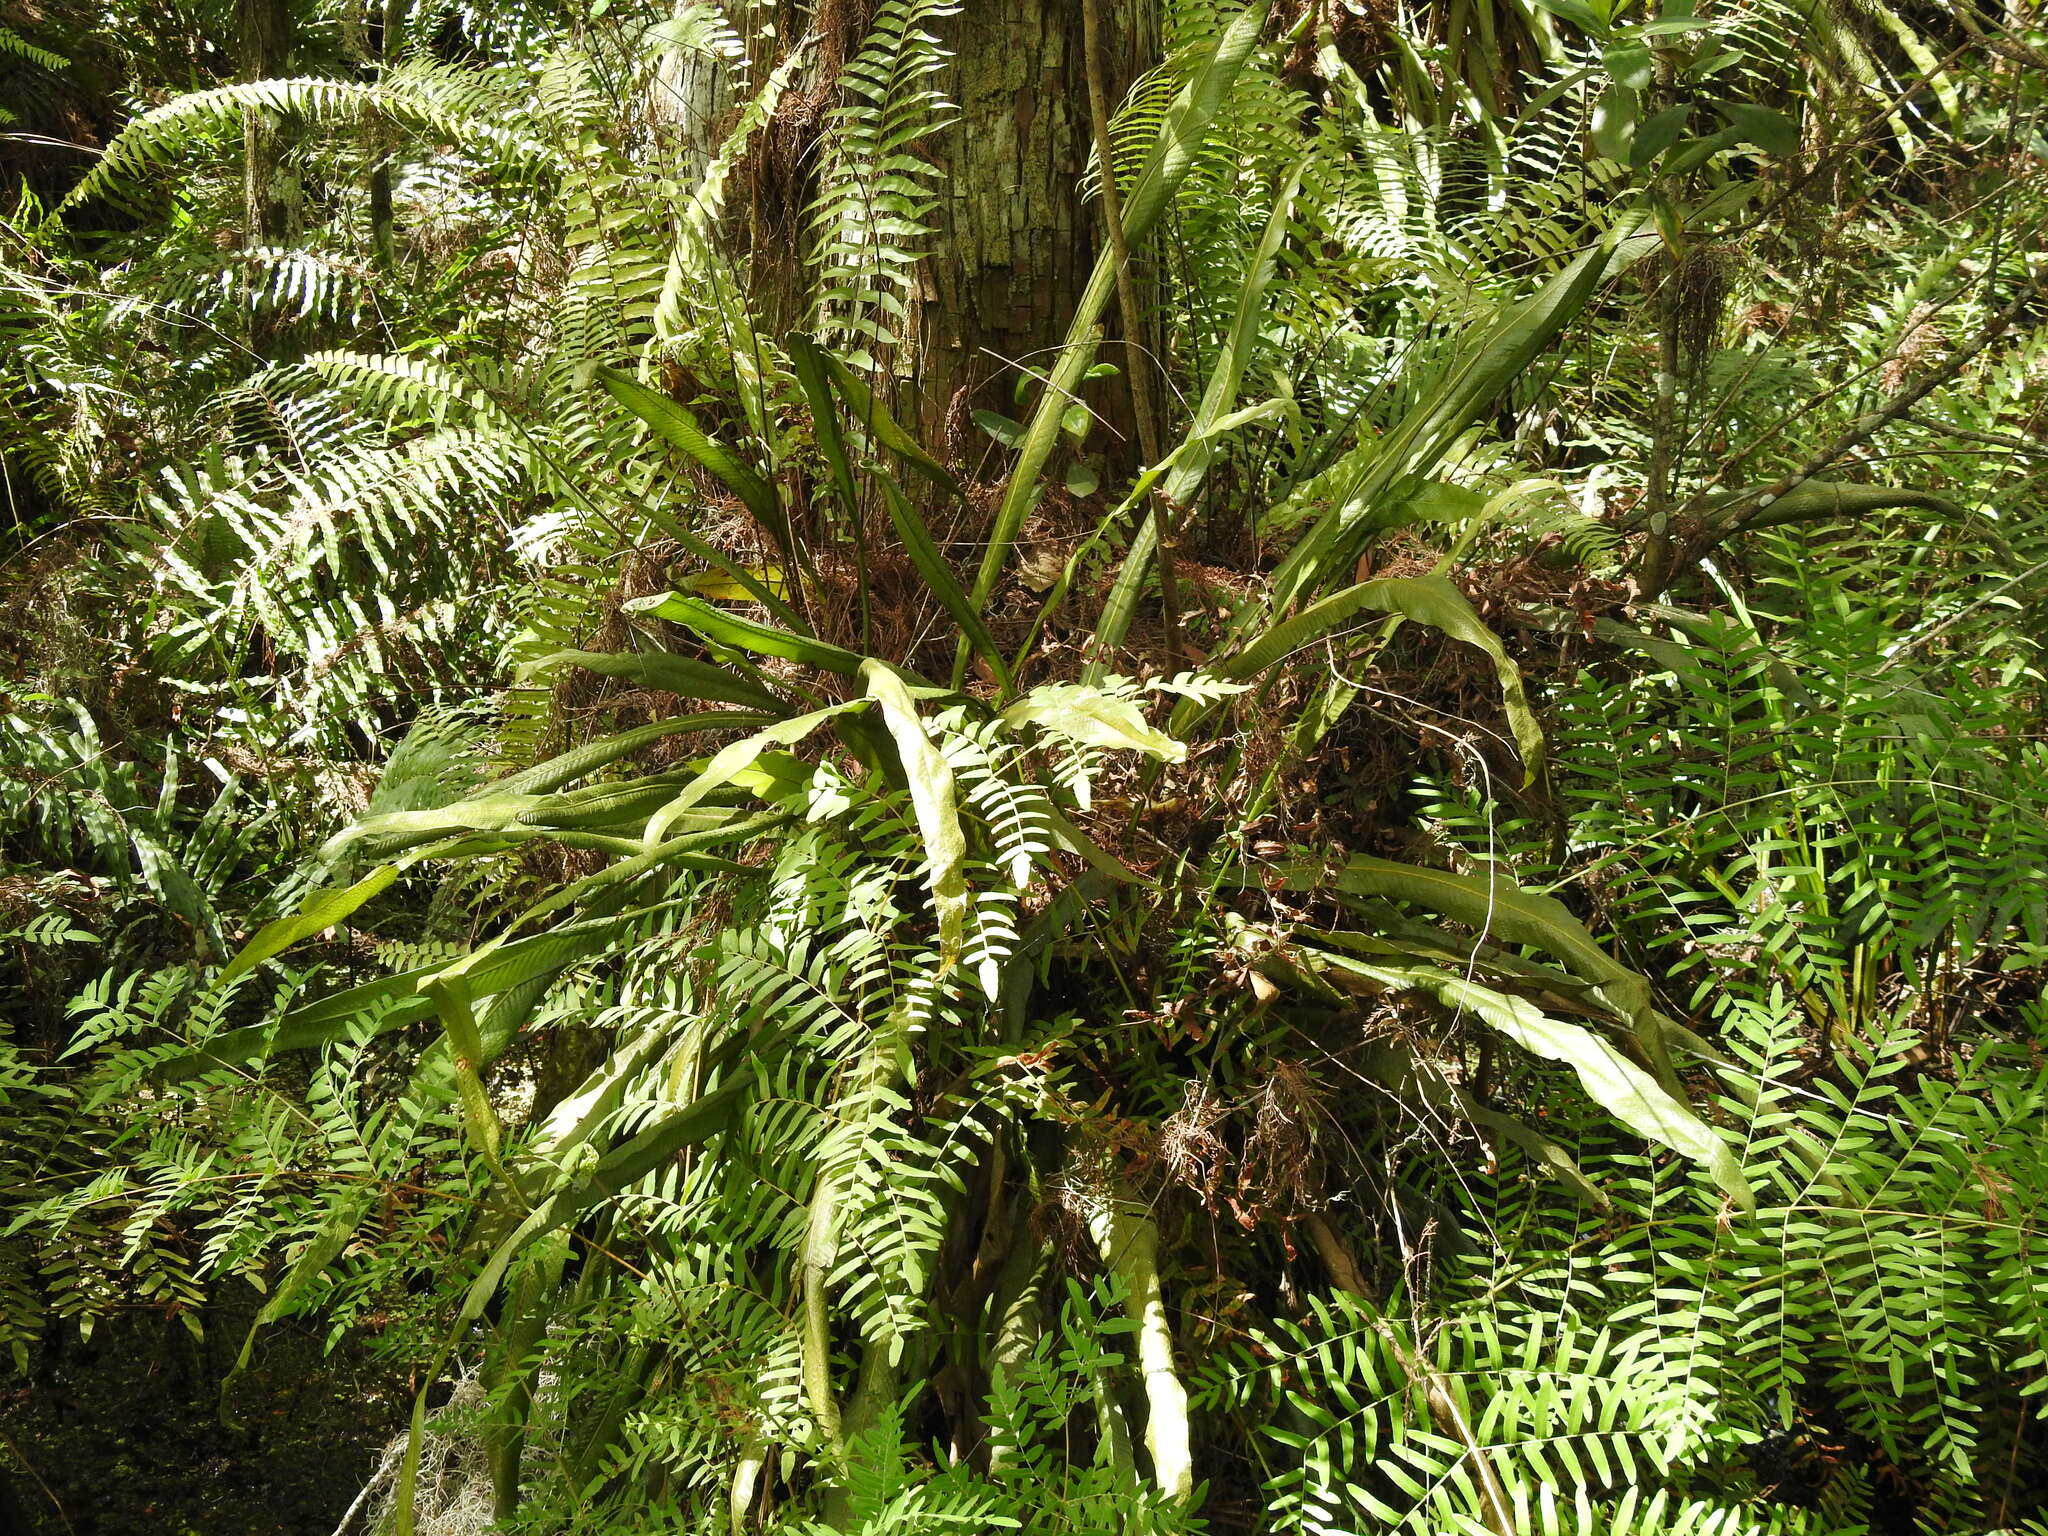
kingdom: Plantae
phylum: Tracheophyta
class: Polypodiopsida
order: Polypodiales
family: Polypodiaceae
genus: Campyloneurum
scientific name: Campyloneurum phyllitidis
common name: Cow-tongue fern
